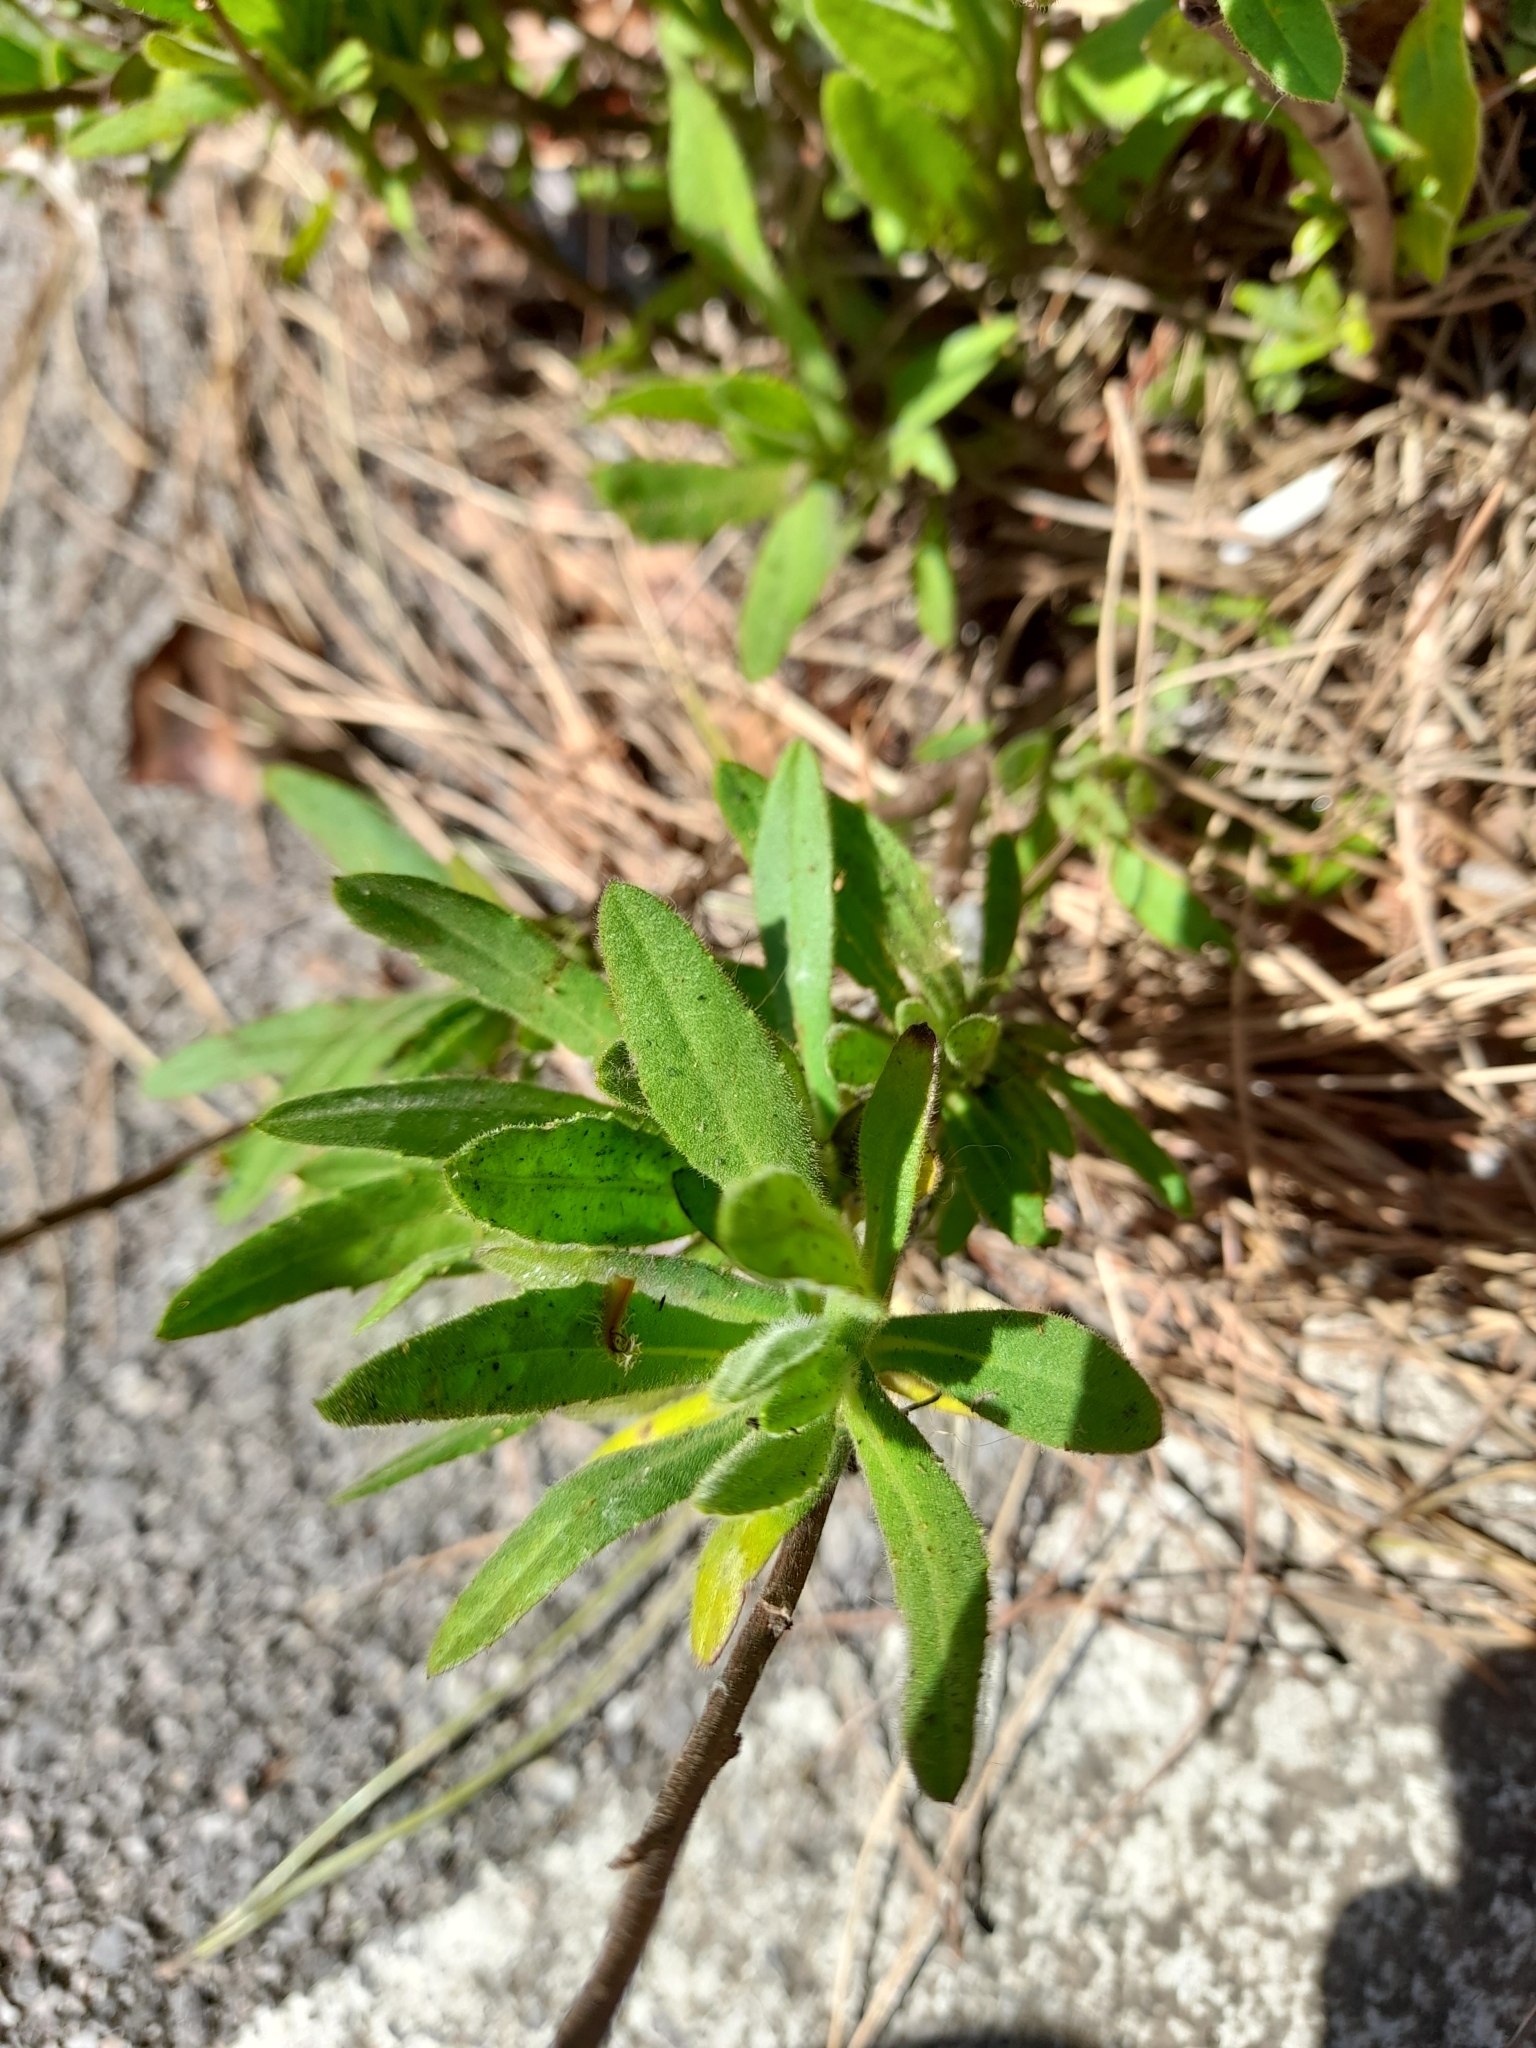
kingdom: Plantae
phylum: Tracheophyta
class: Magnoliopsida
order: Asterales
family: Asteraceae
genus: Dittrichia
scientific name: Dittrichia viscosa
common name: Woody fleabane
